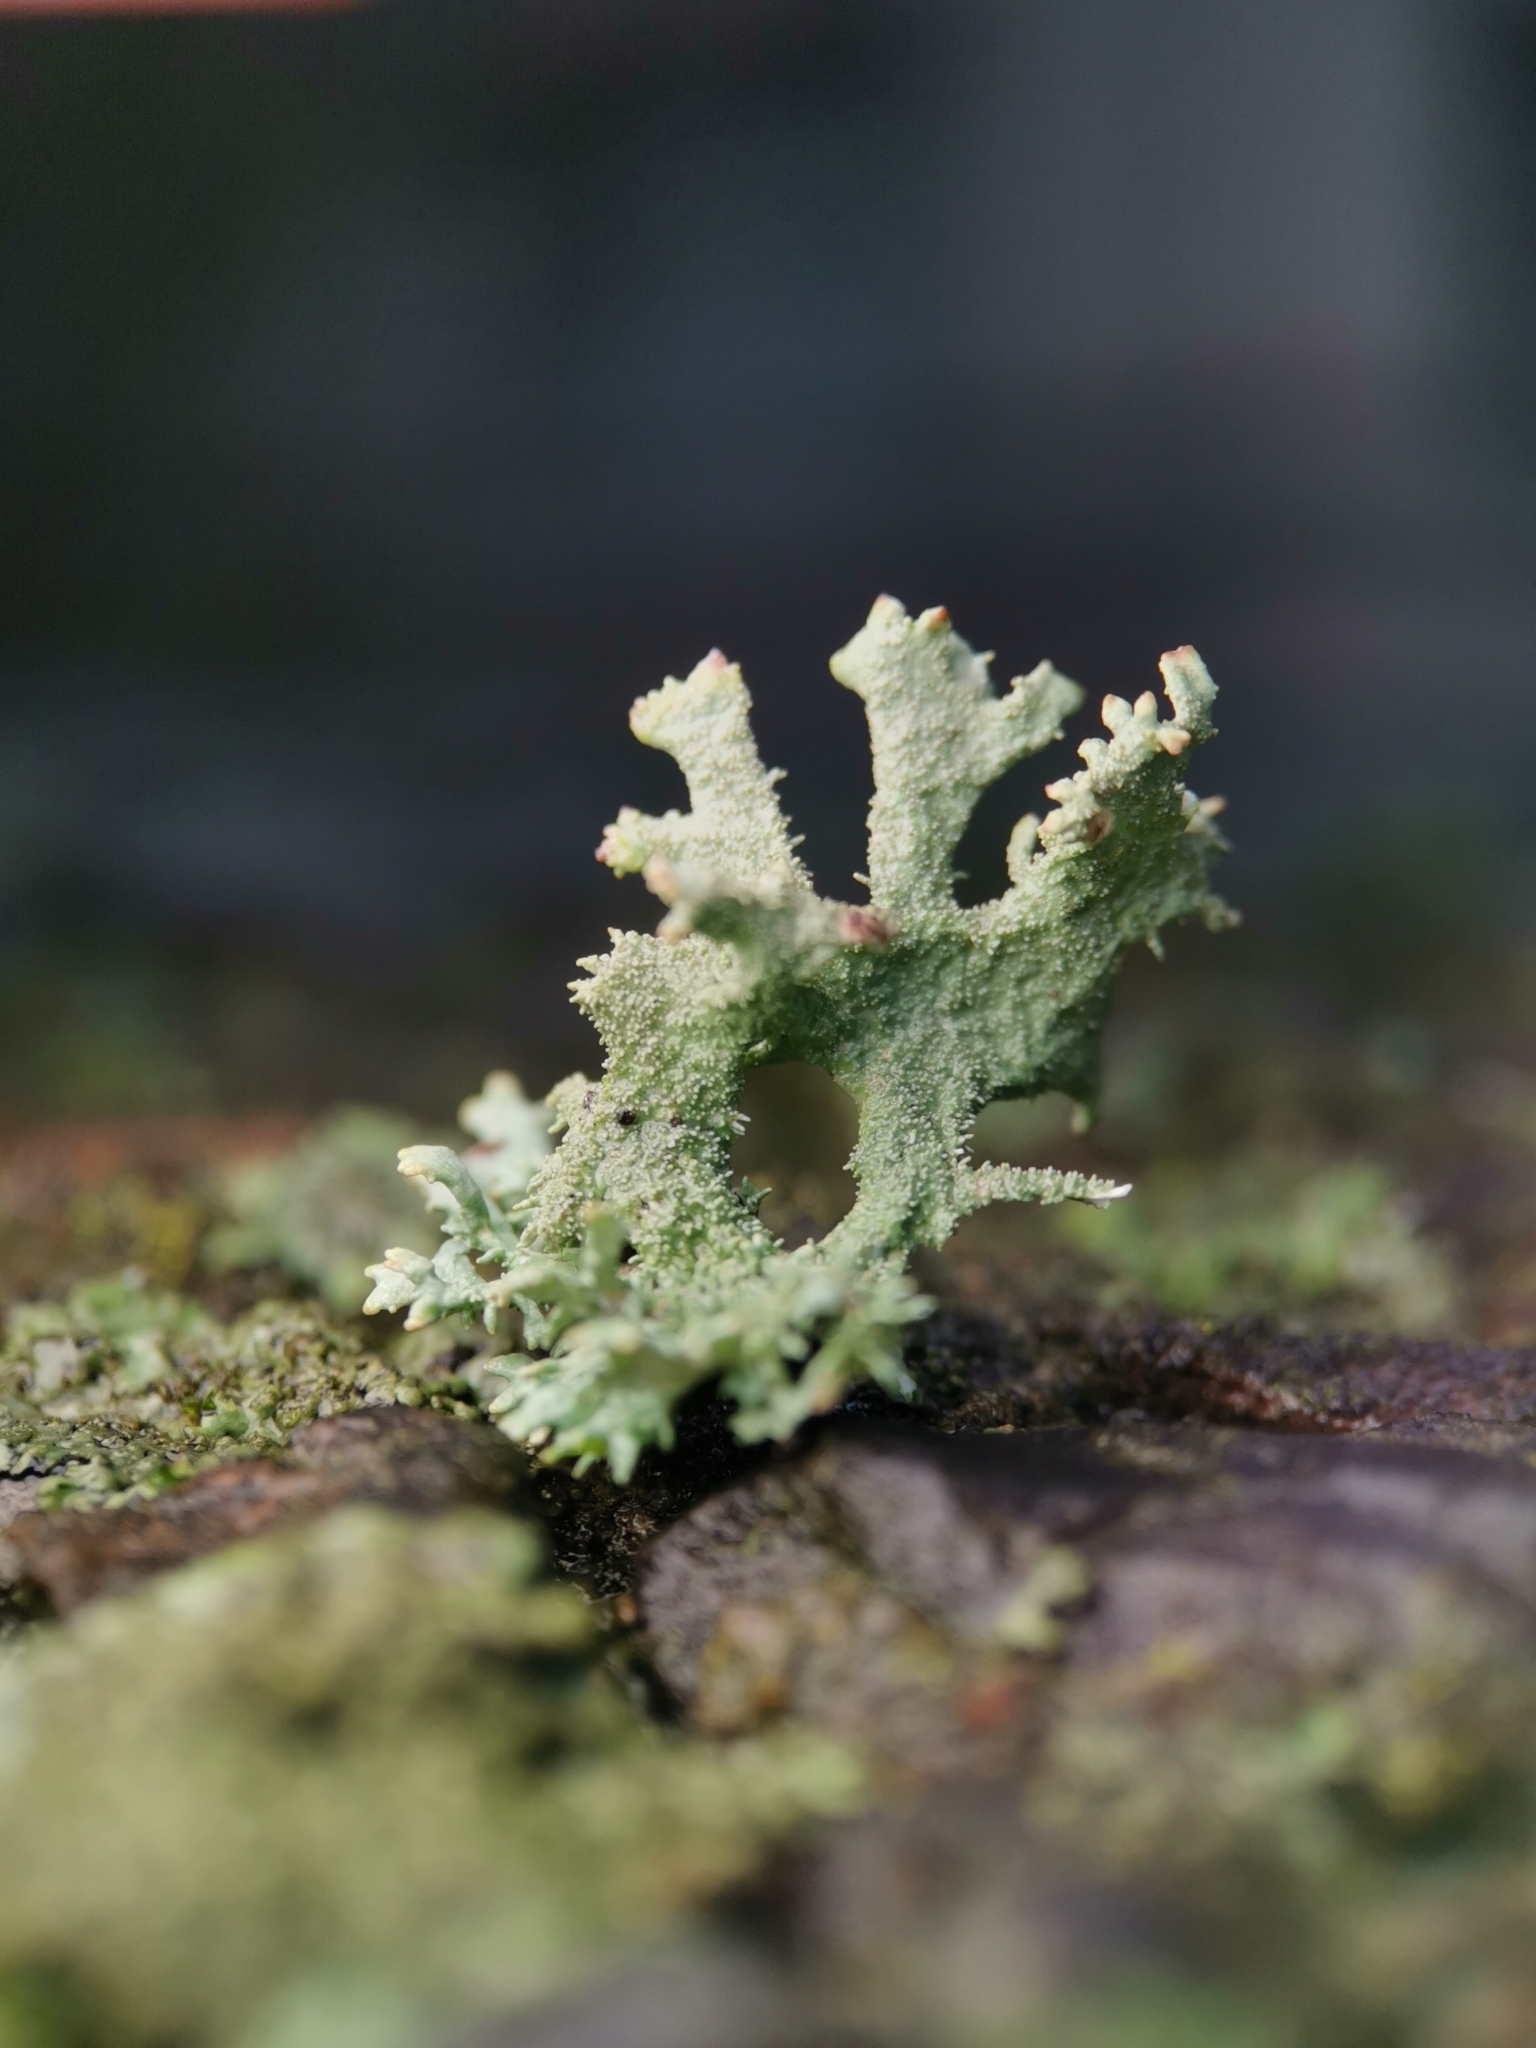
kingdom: Fungi
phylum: Ascomycota
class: Lecanoromycetes
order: Lecanorales
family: Parmeliaceae
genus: Pseudevernia
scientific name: Pseudevernia furfuracea
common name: Tree moss
